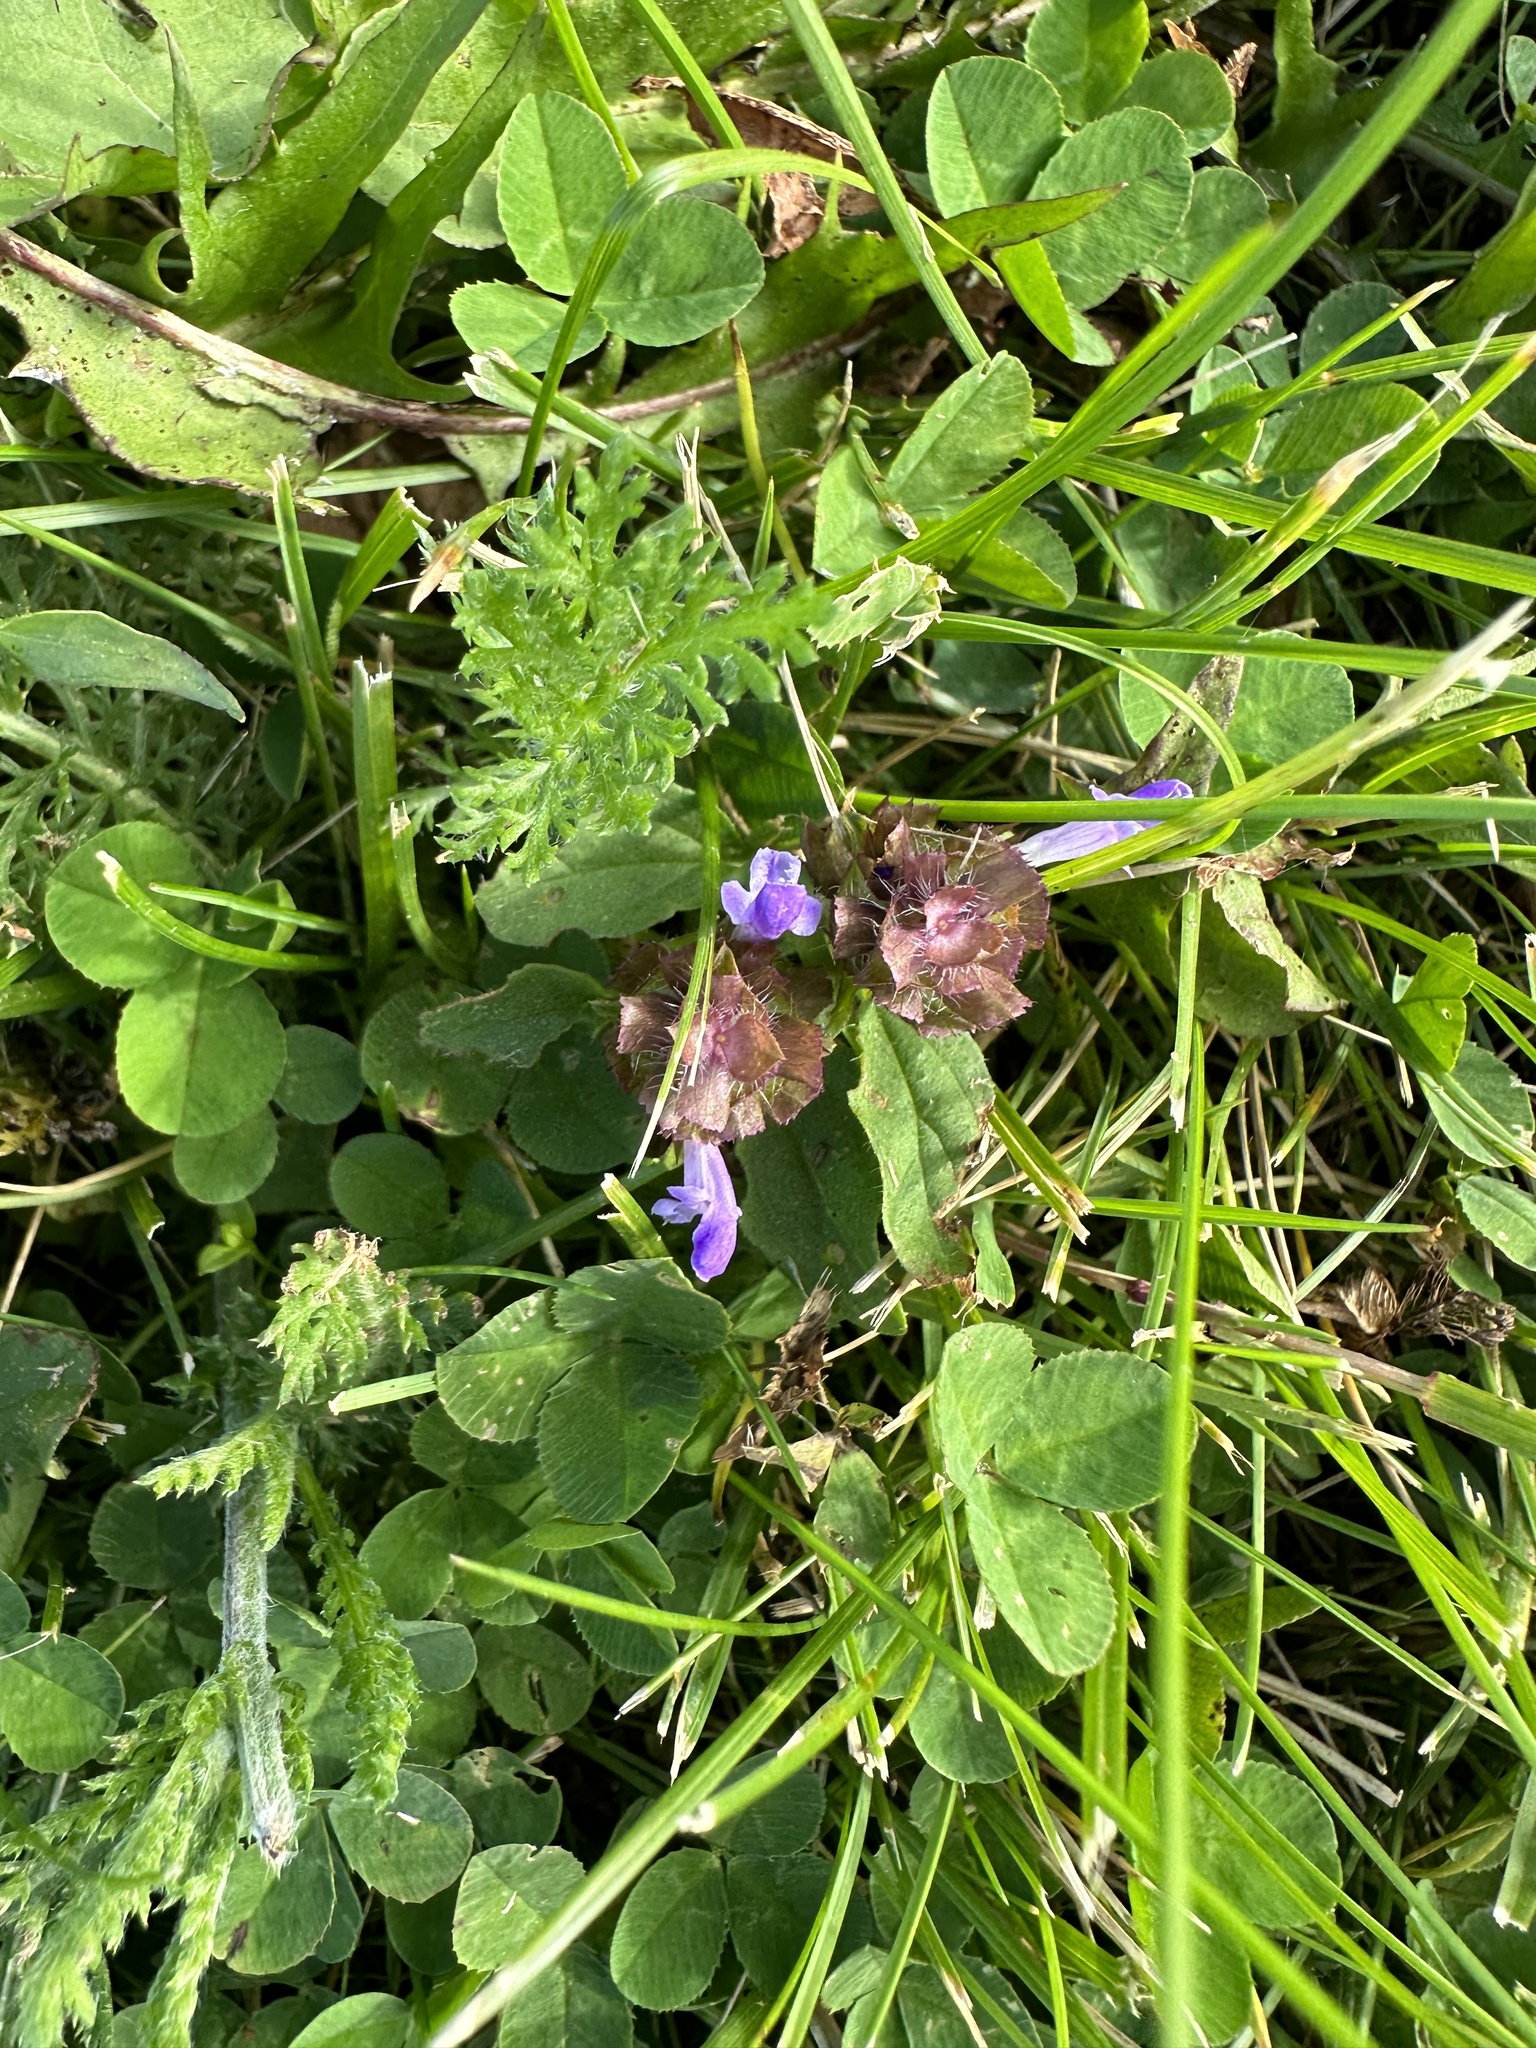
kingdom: Plantae
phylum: Tracheophyta
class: Magnoliopsida
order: Lamiales
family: Lamiaceae
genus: Glechoma
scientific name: Glechoma hederacea
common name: Ground ivy
